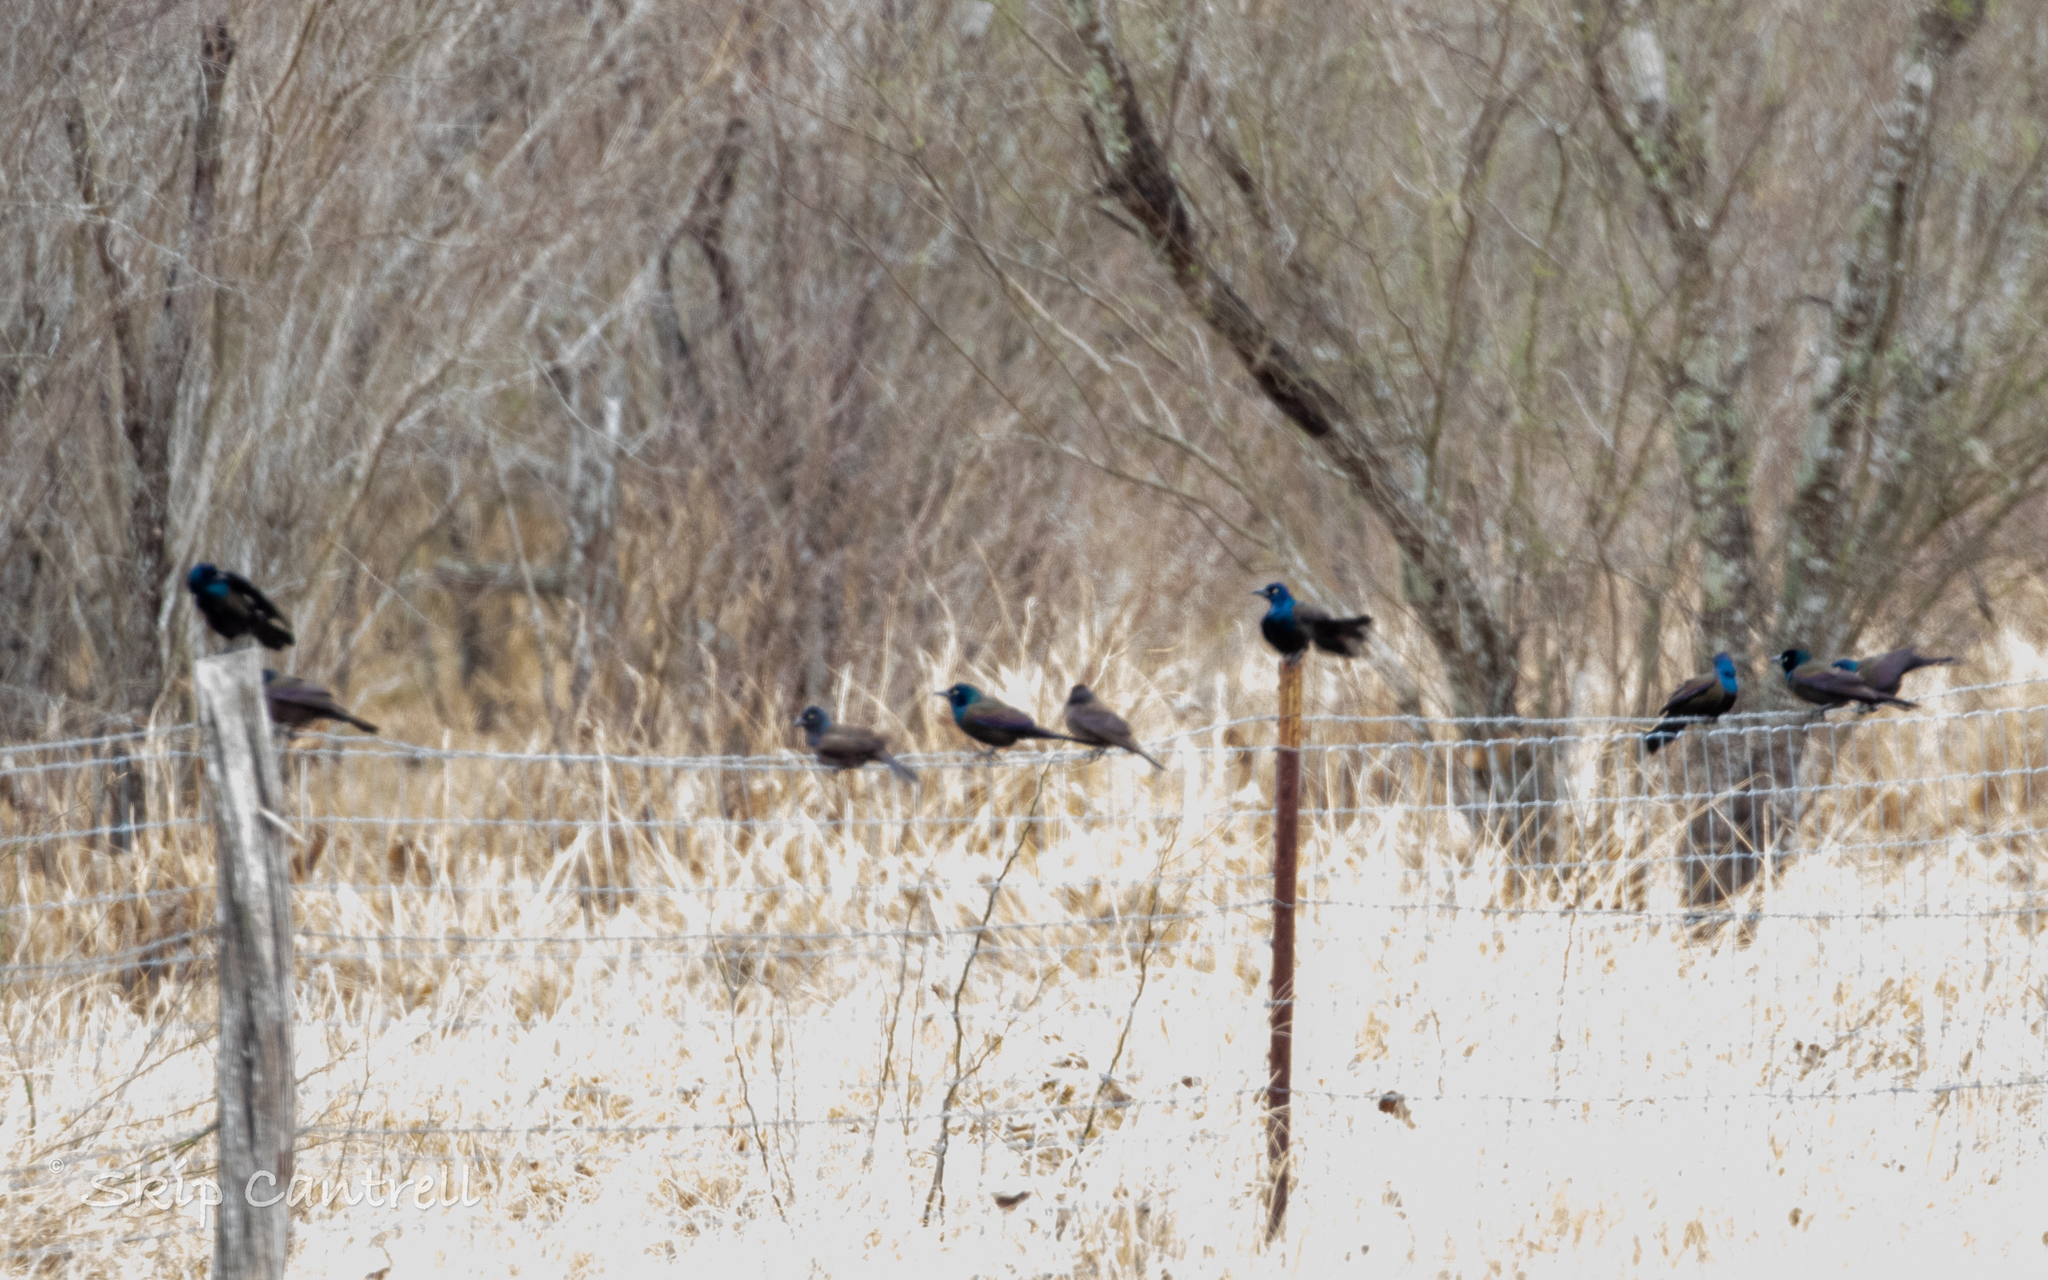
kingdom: Animalia
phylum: Chordata
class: Aves
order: Passeriformes
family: Icteridae
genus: Quiscalus
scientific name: Quiscalus quiscula
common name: Common grackle
